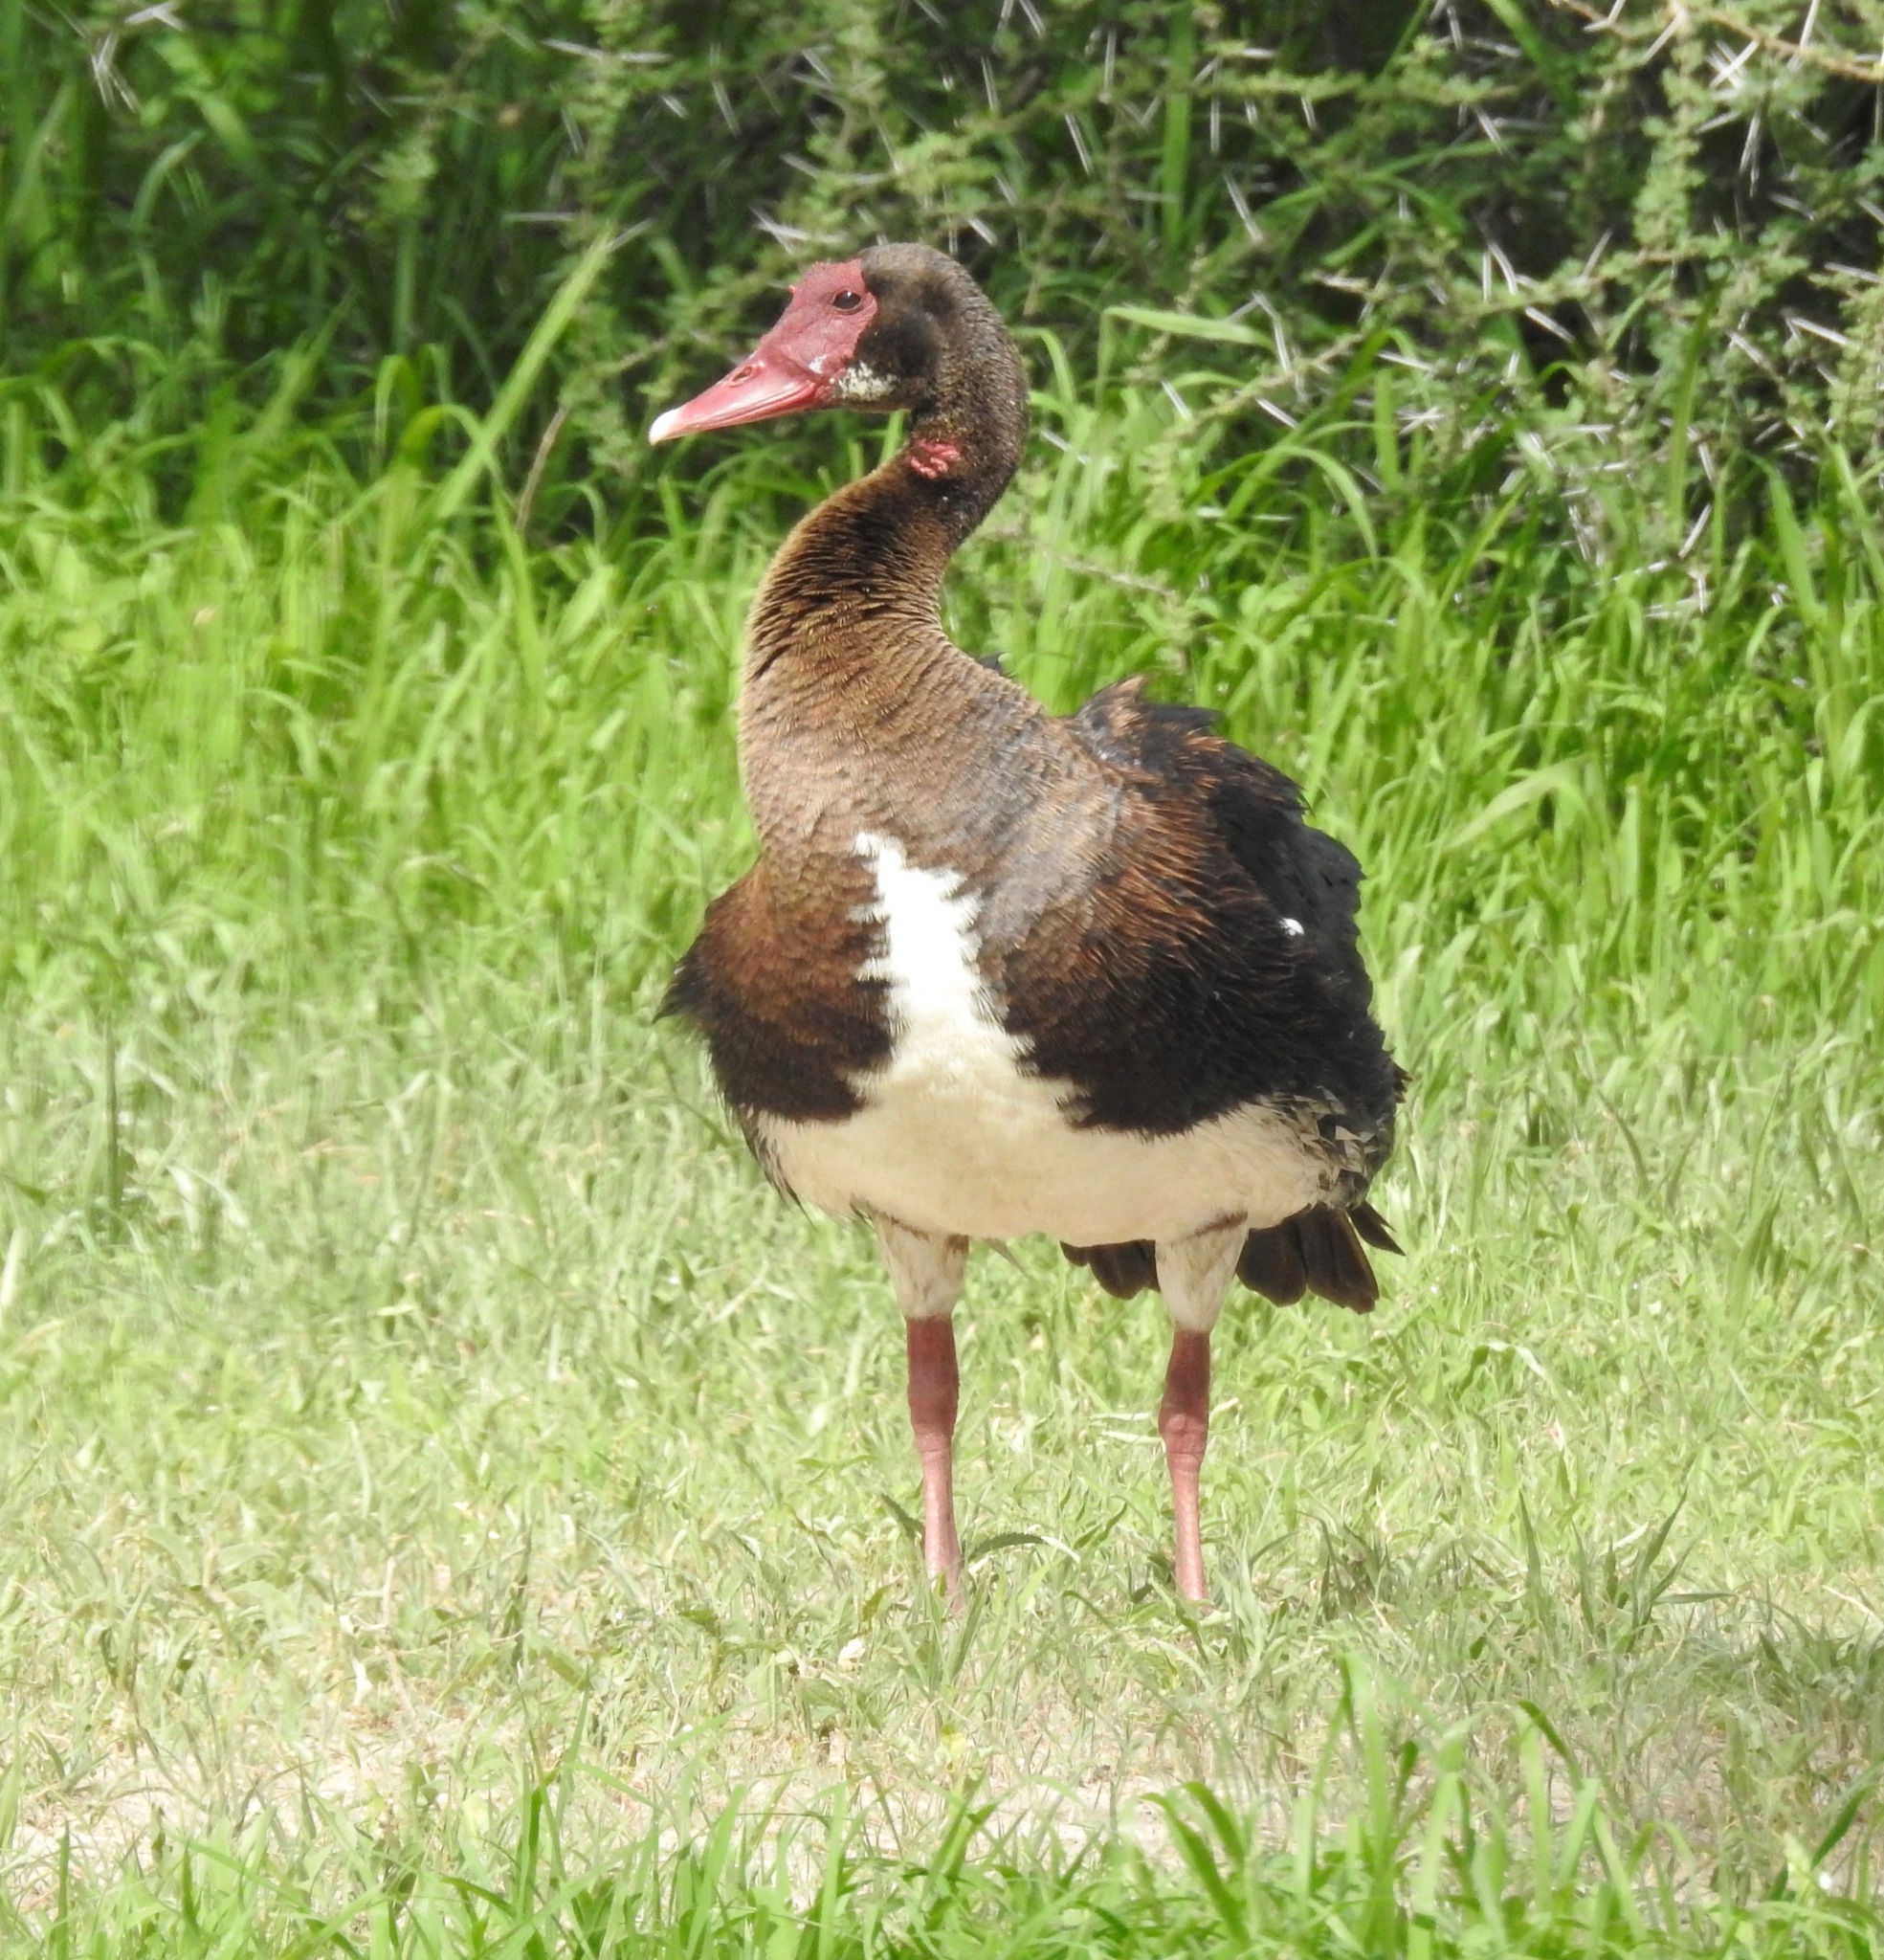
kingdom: Animalia
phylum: Chordata
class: Aves
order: Anseriformes
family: Anatidae
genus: Plectropterus
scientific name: Plectropterus gambensis
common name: Spur-winged goose
